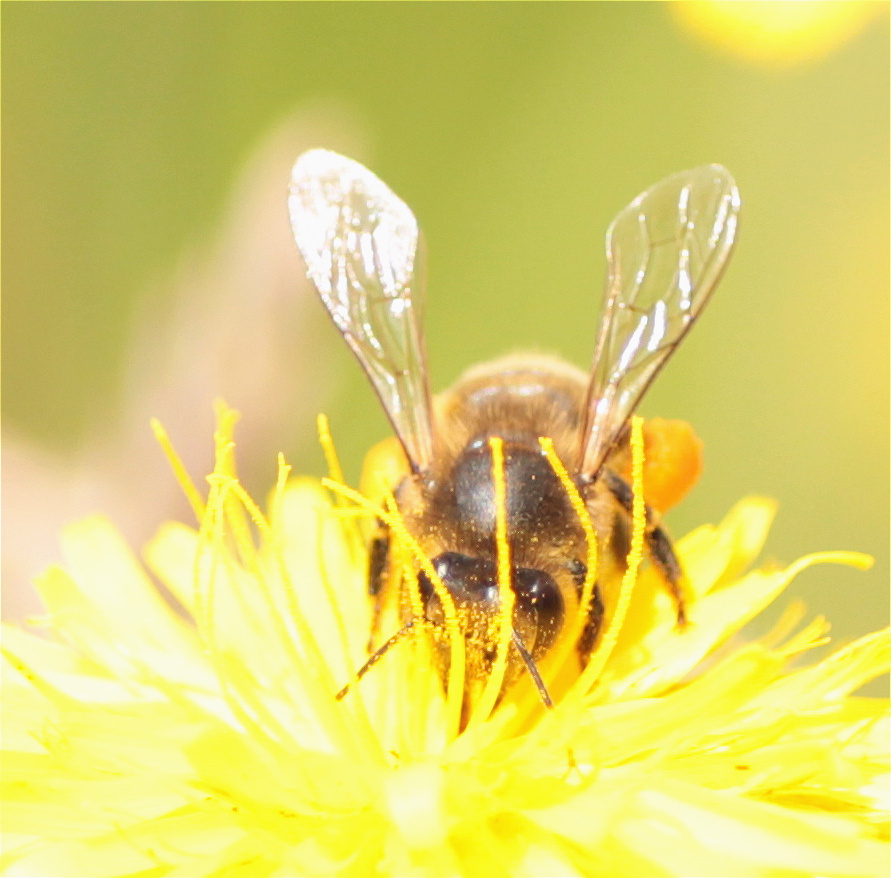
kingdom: Animalia
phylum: Arthropoda
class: Insecta
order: Hymenoptera
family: Apidae
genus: Apis
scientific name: Apis mellifera
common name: Honey bee
